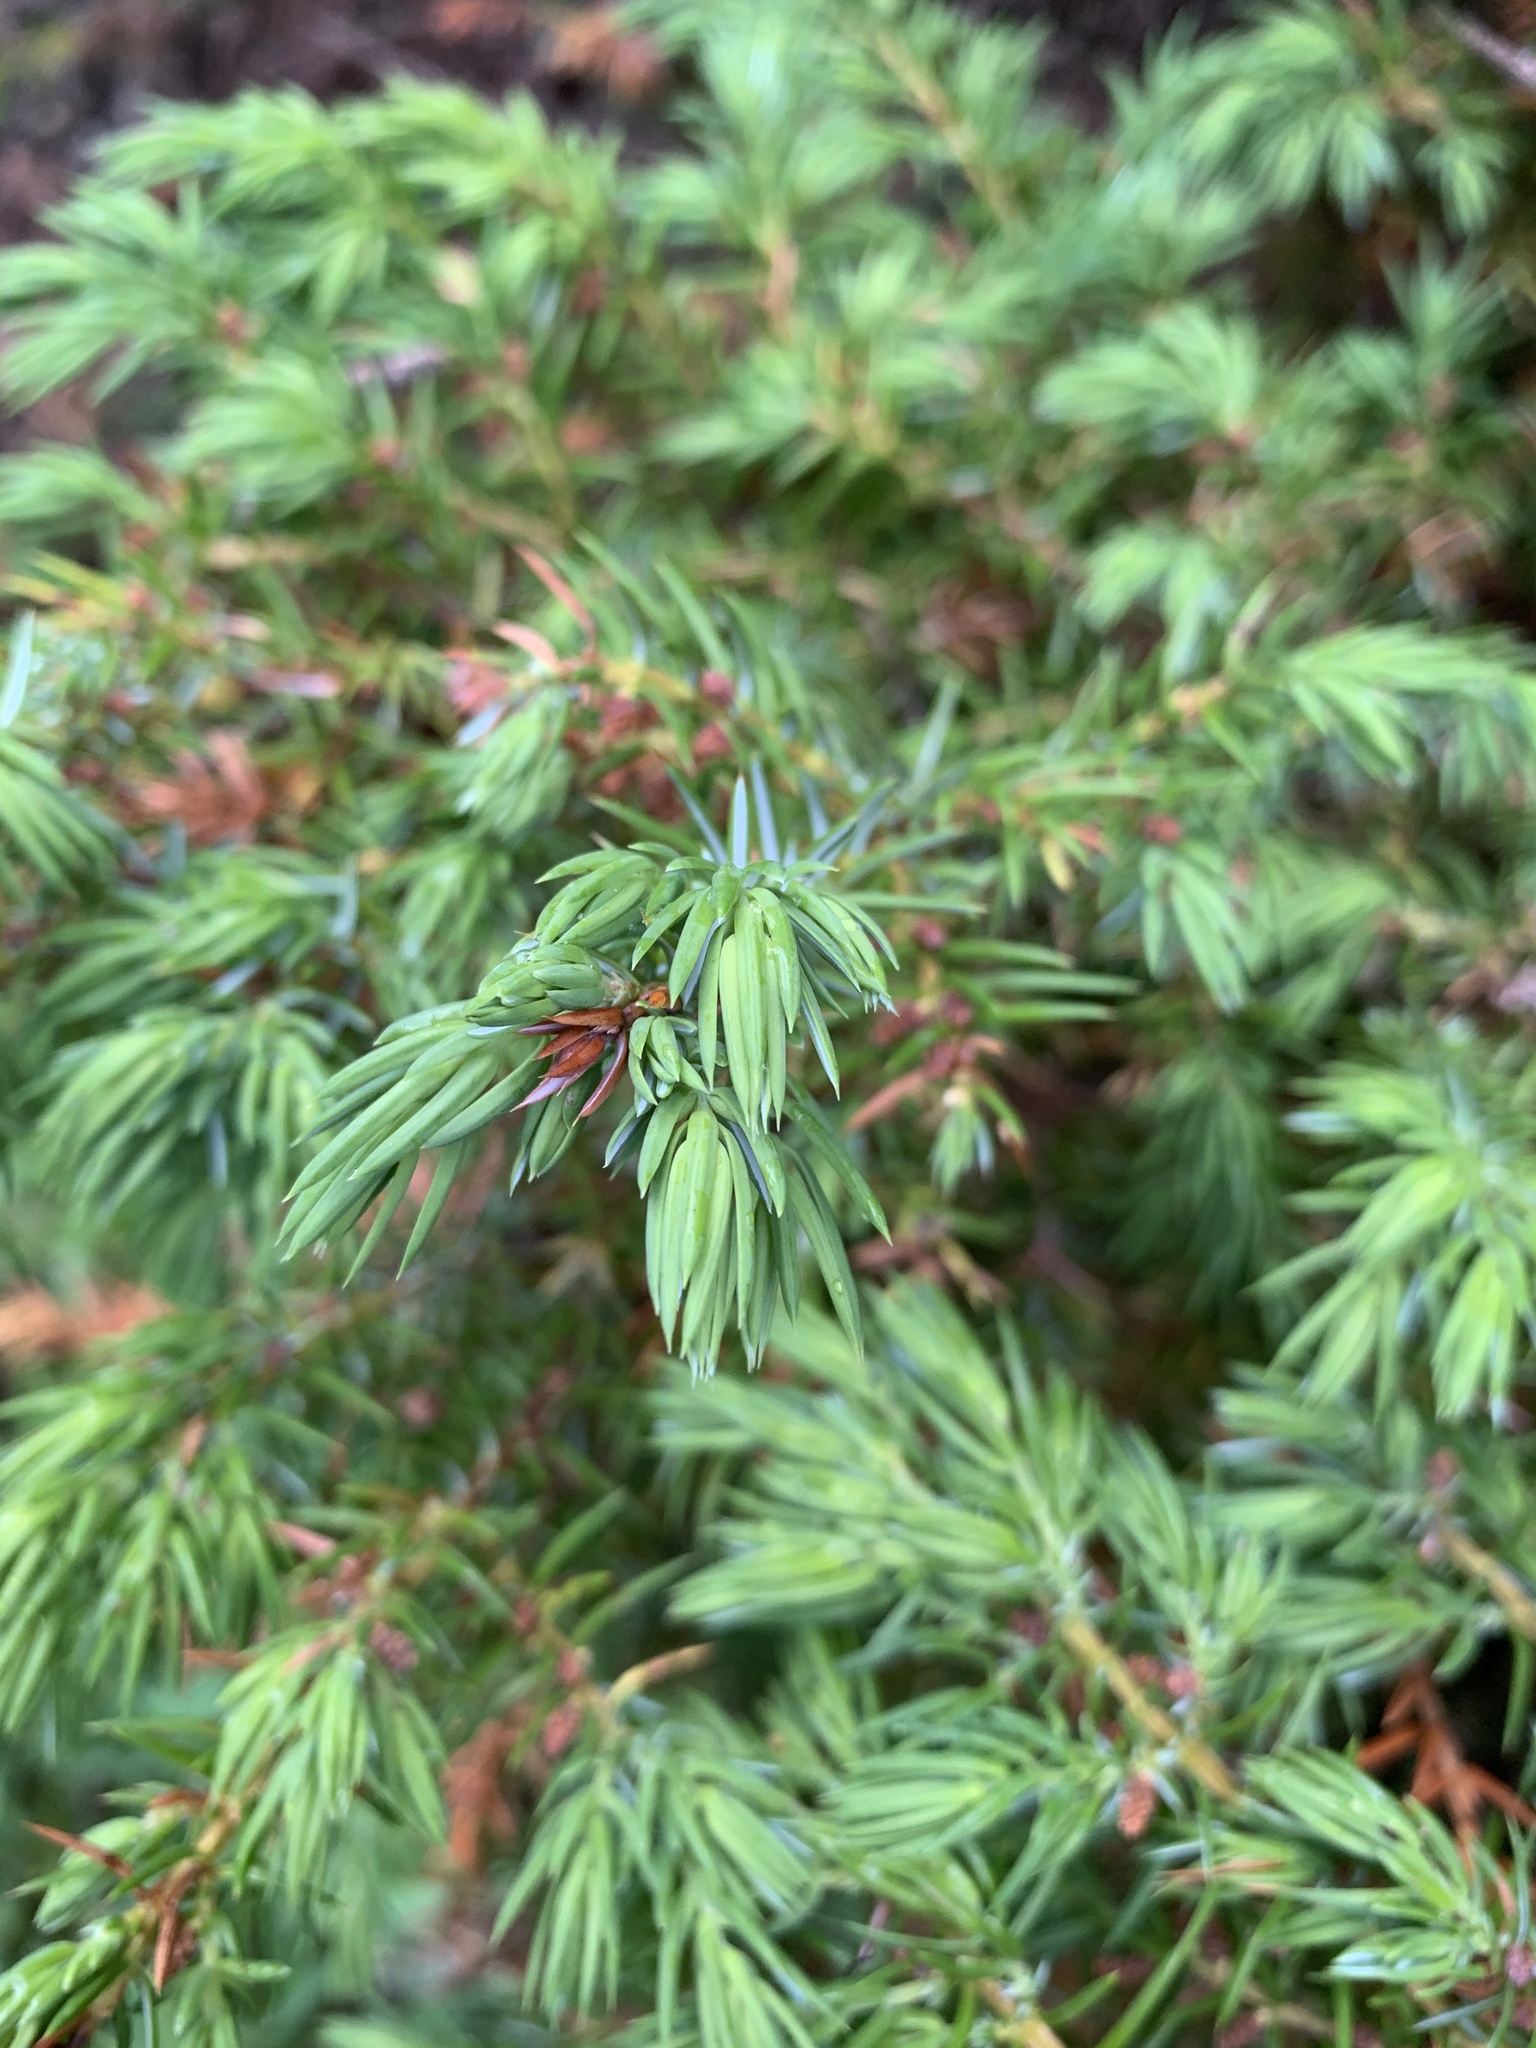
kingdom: Plantae
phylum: Tracheophyta
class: Pinopsida
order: Pinales
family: Cupressaceae
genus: Juniperus
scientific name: Juniperus communis
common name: Common juniper
